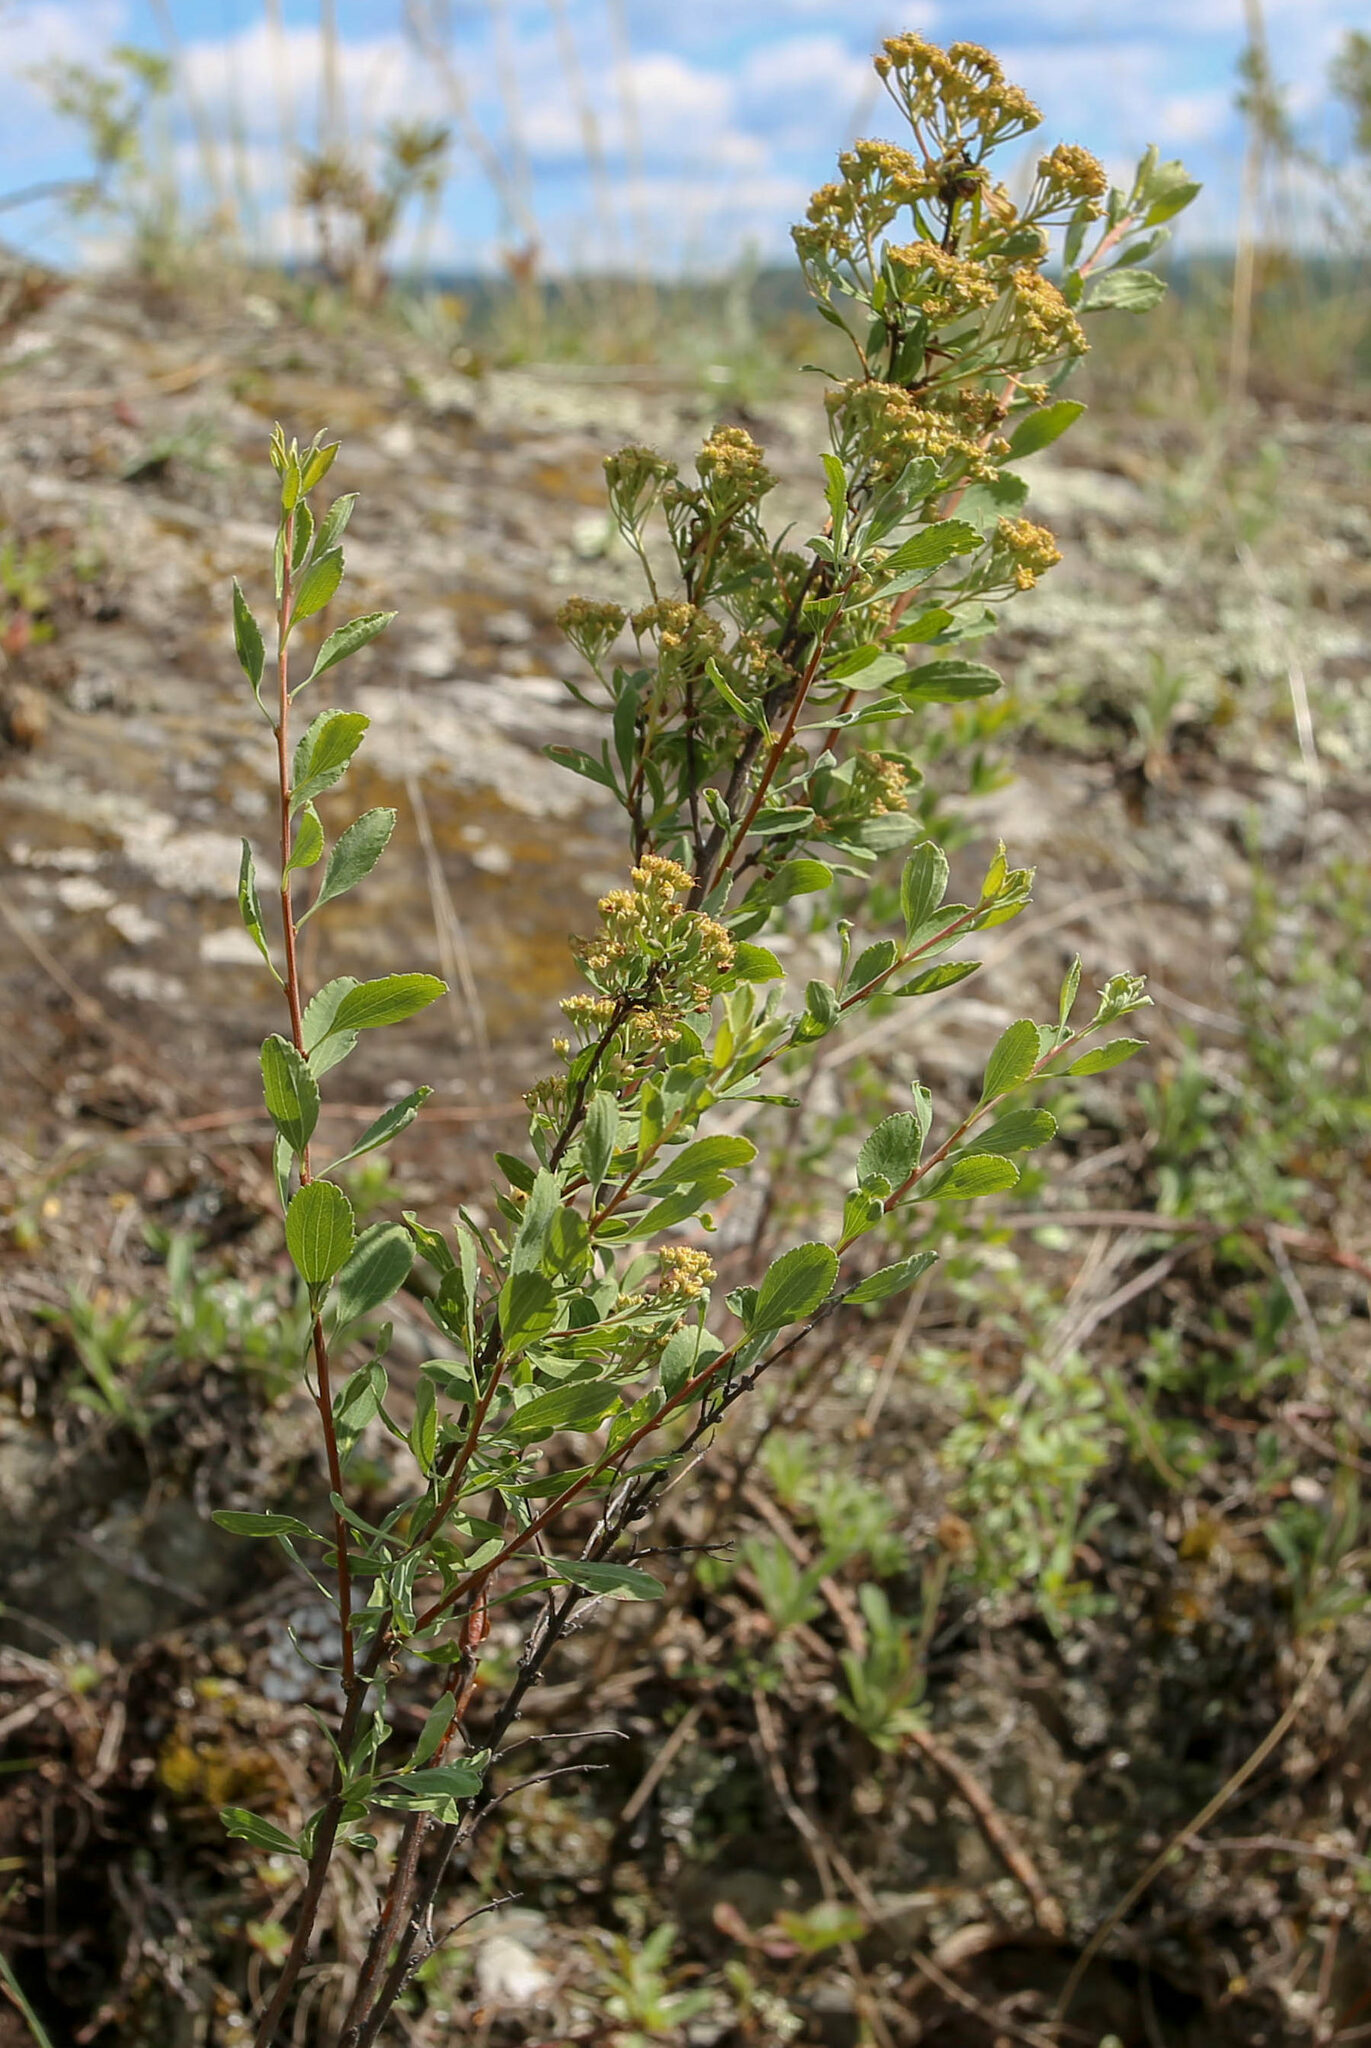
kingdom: Plantae
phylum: Tracheophyta
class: Magnoliopsida
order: Rosales
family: Rosaceae
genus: Spiraea
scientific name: Spiraea crenata
